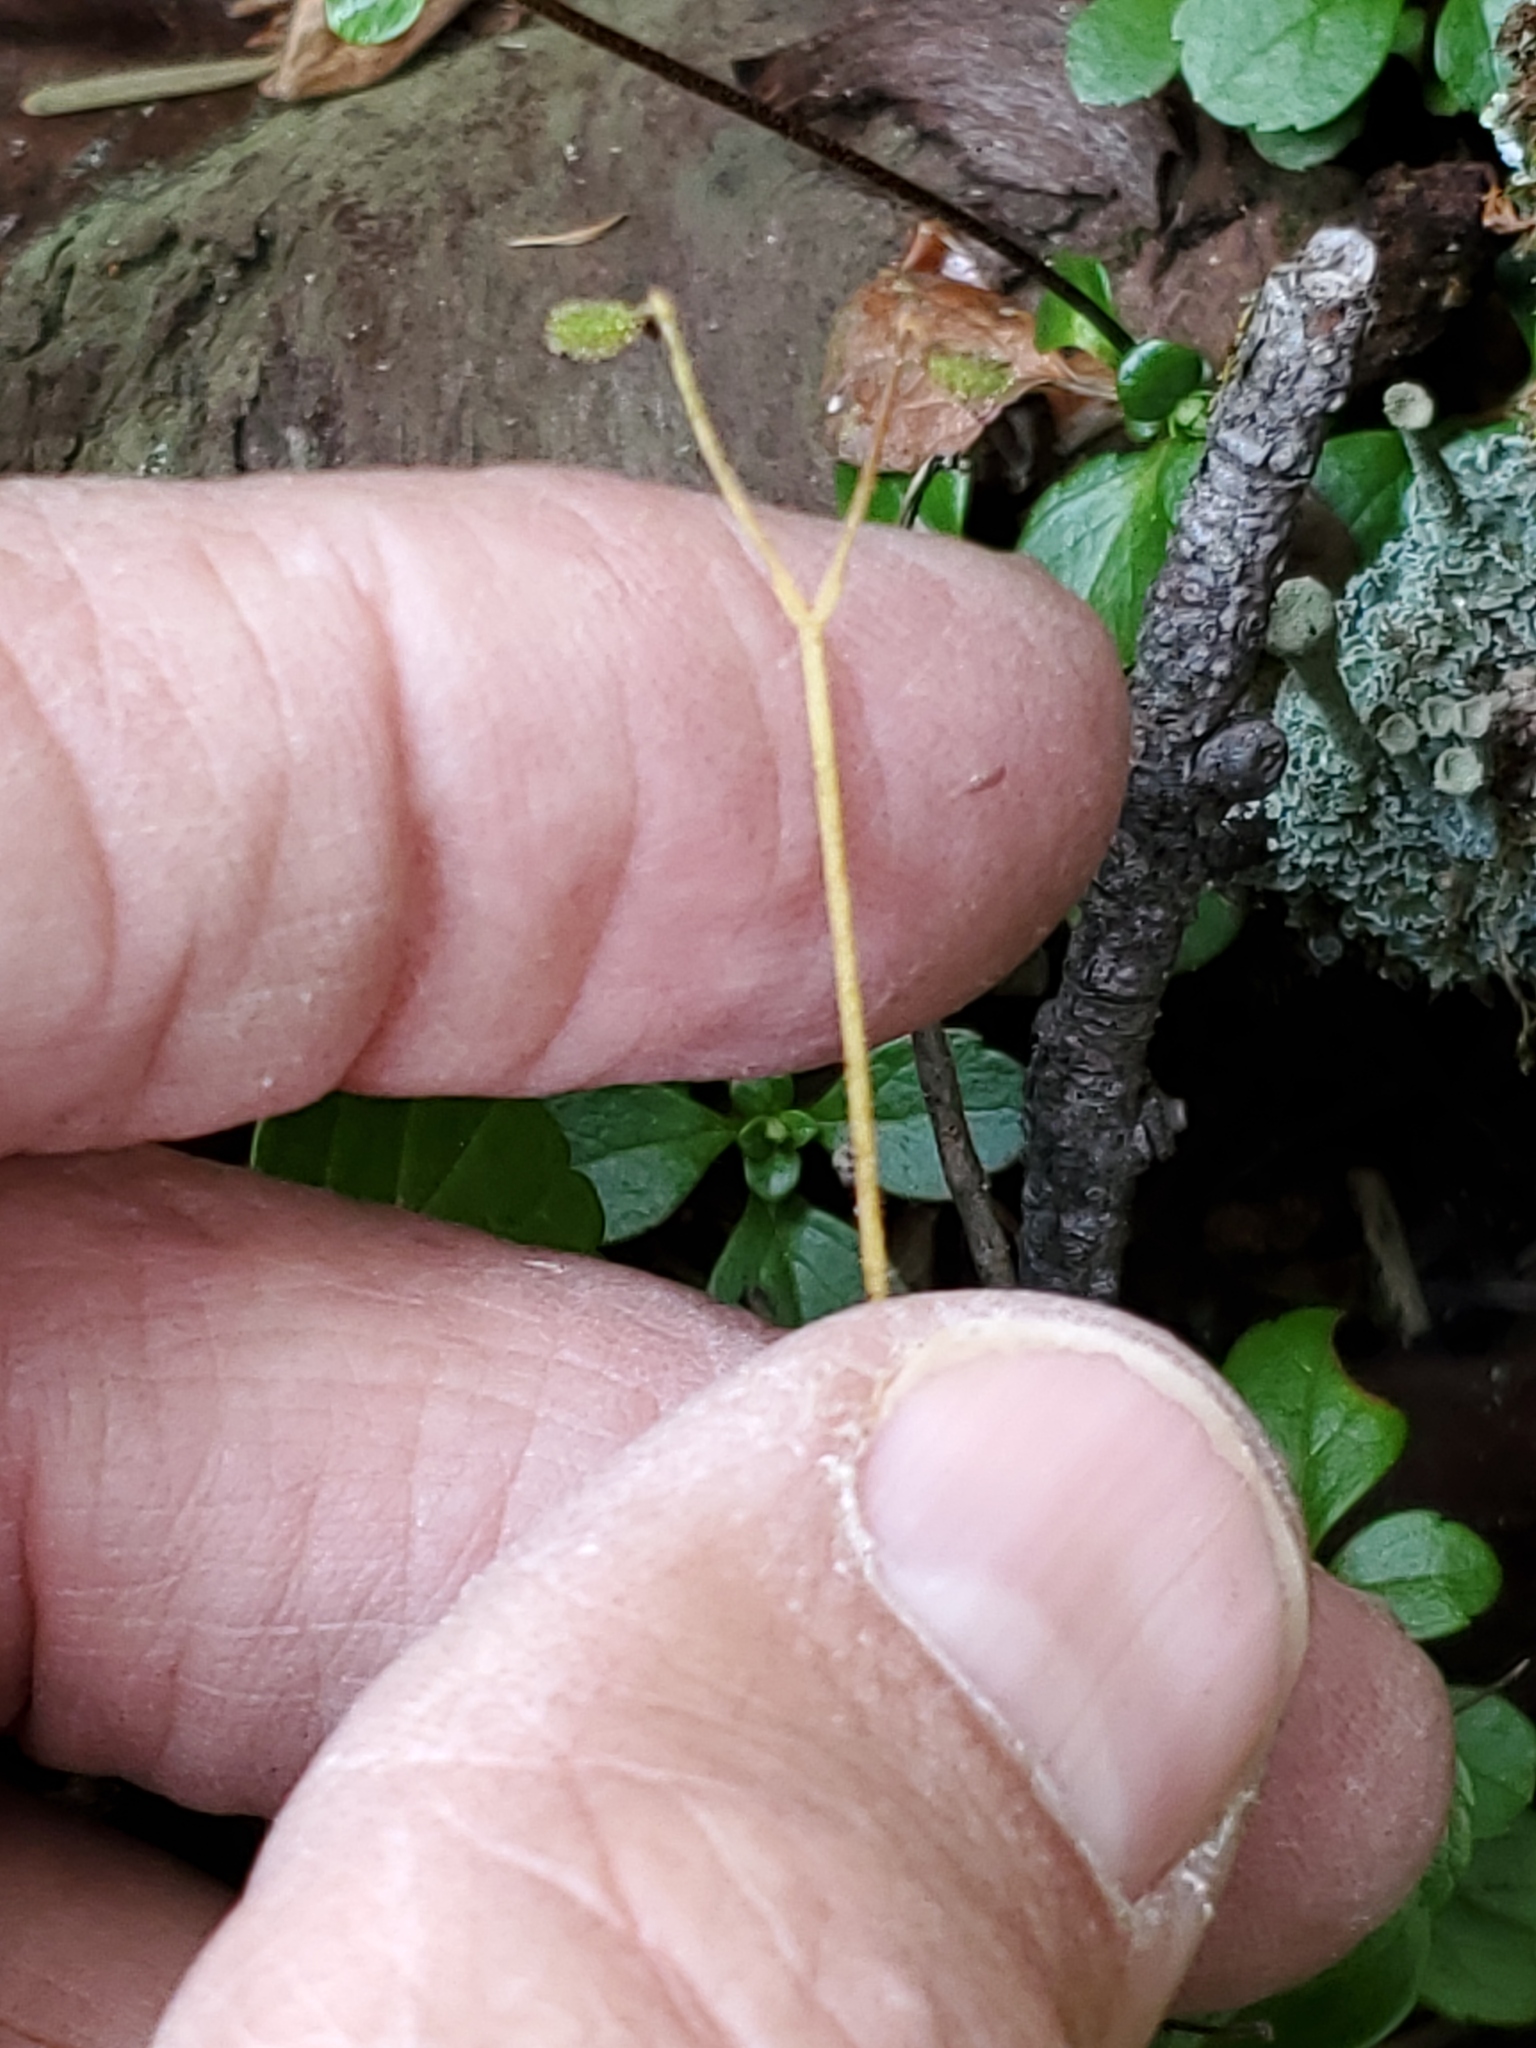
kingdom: Plantae
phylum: Tracheophyta
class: Magnoliopsida
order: Dipsacales
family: Caprifoliaceae
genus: Linnaea
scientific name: Linnaea borealis
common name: Twinflower
